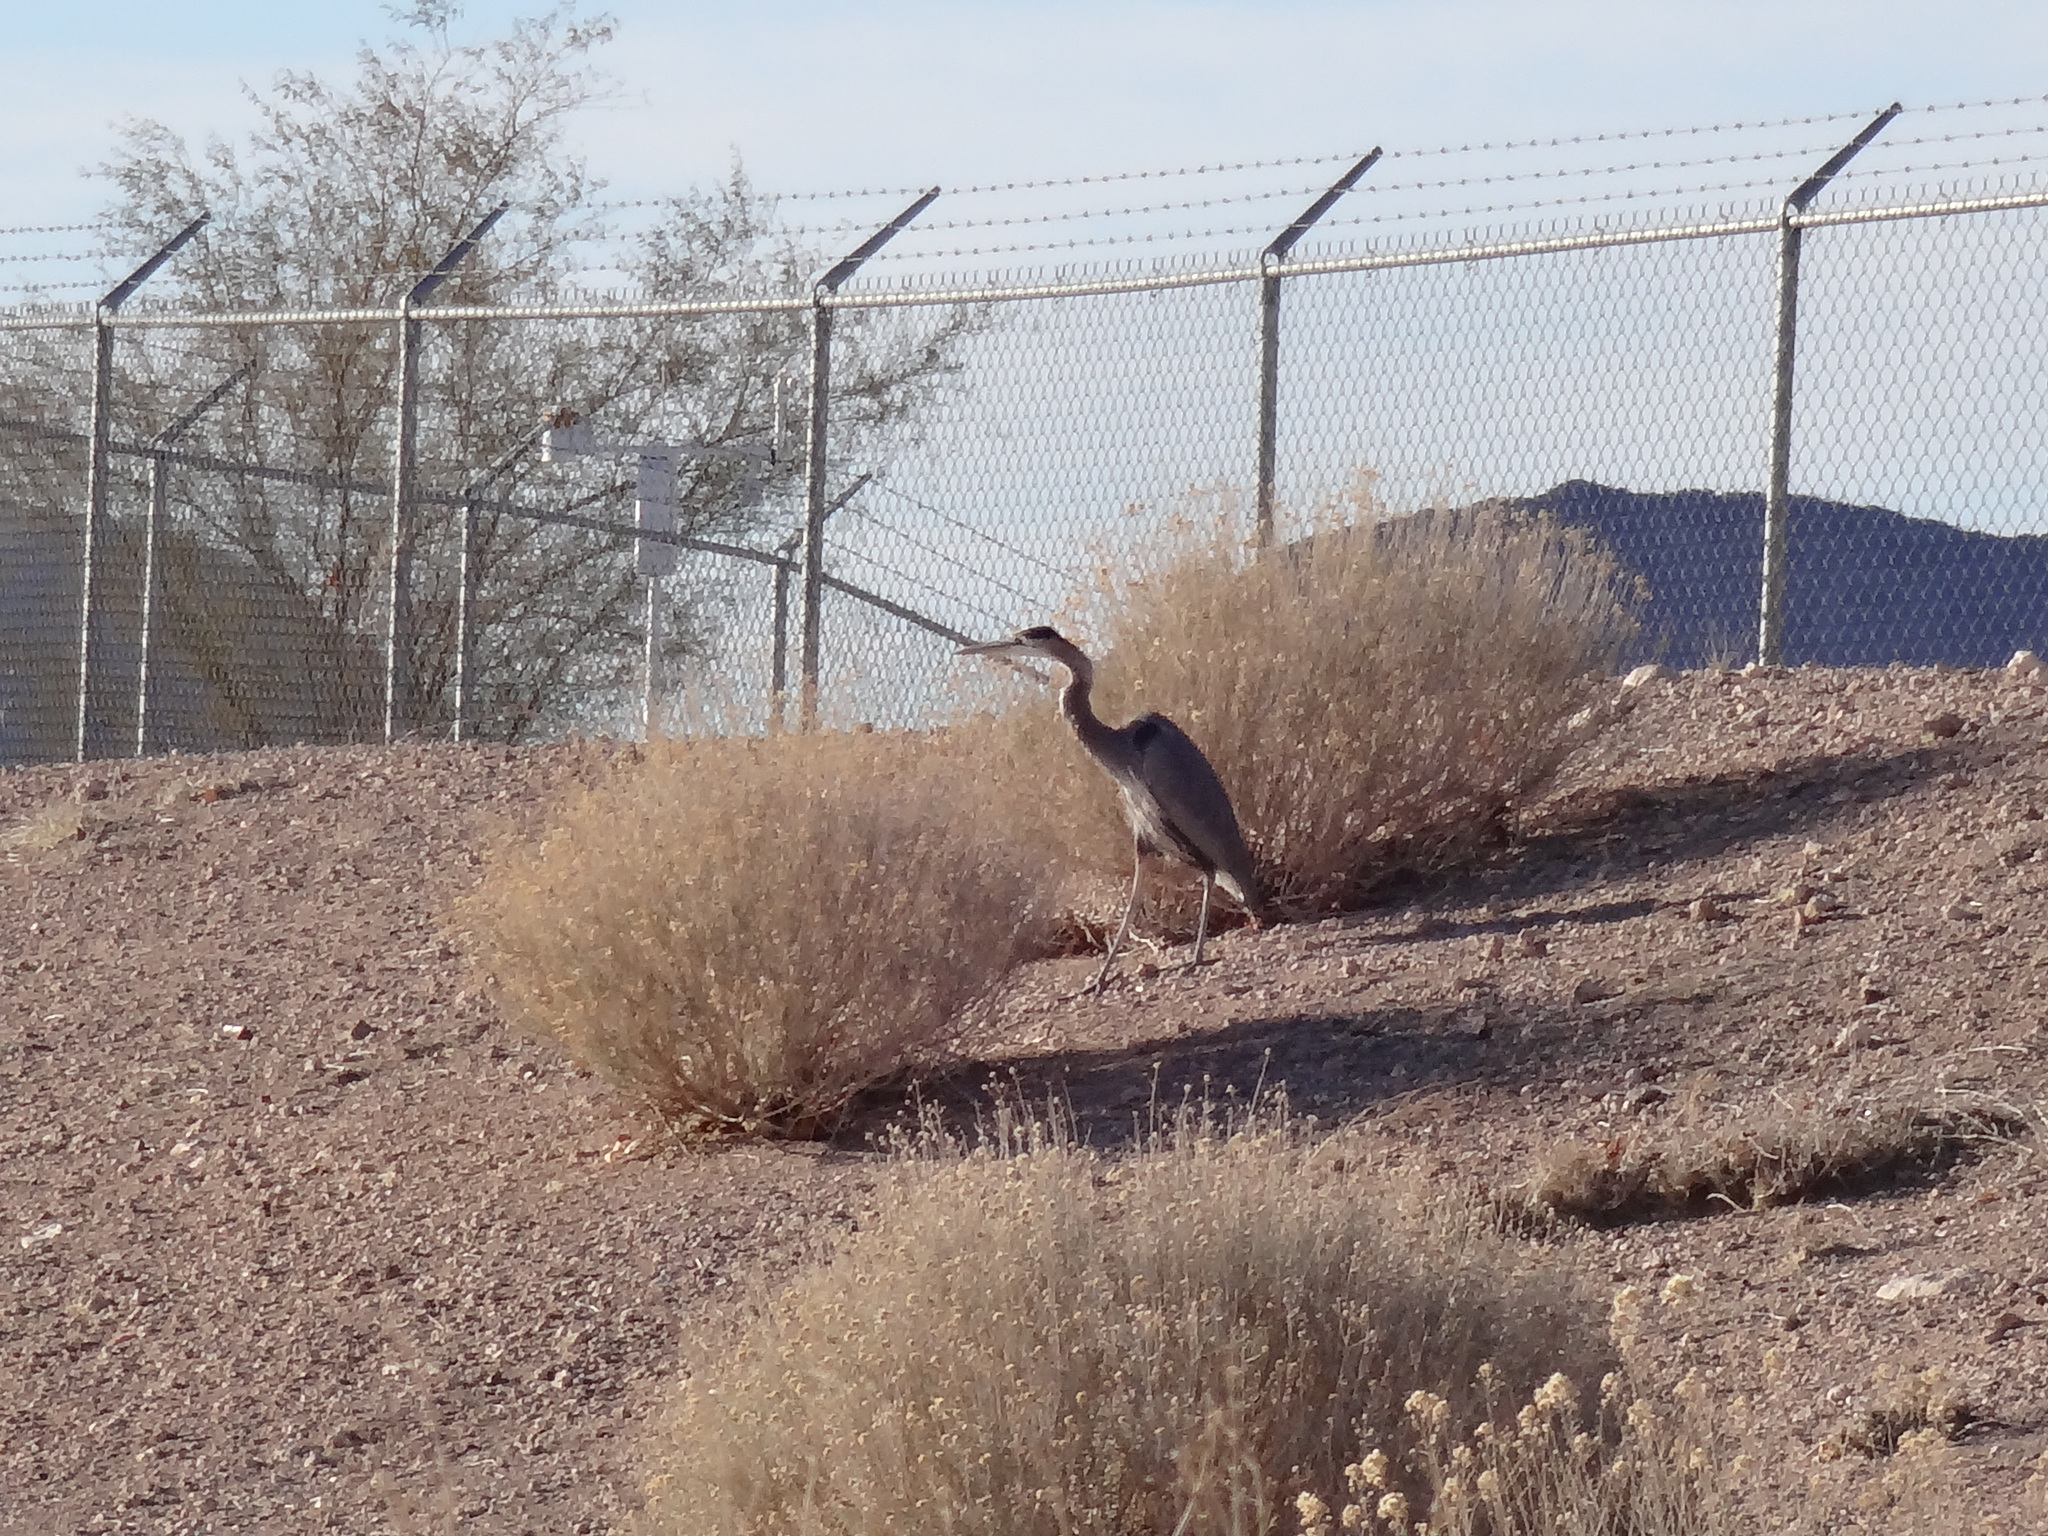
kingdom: Animalia
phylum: Chordata
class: Aves
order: Pelecaniformes
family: Ardeidae
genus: Ardea
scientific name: Ardea herodias
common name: Great blue heron
